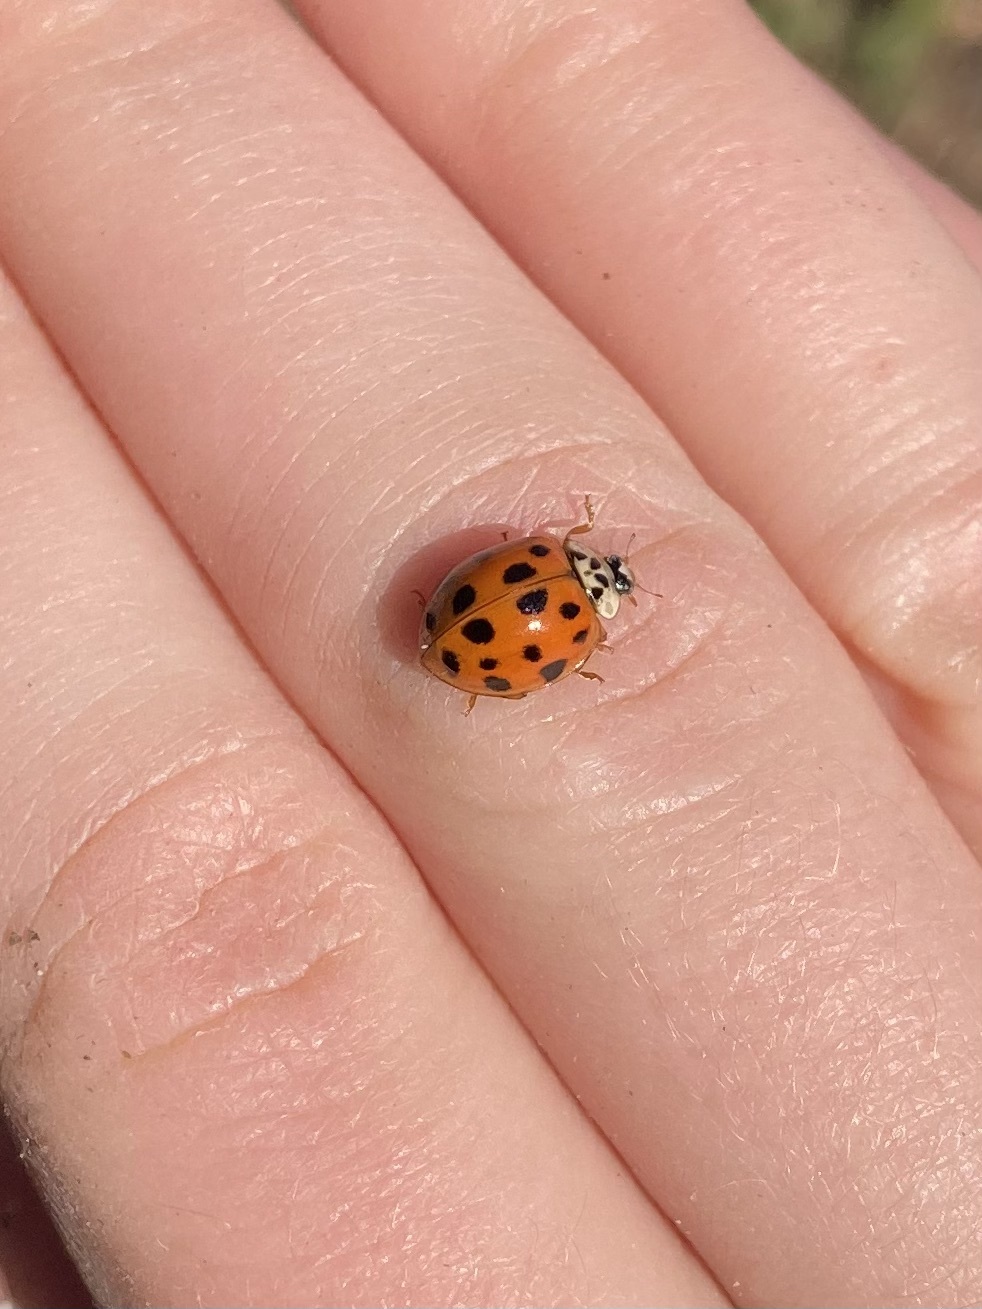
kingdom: Animalia
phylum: Arthropoda
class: Insecta
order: Coleoptera
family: Coccinellidae
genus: Harmonia
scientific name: Harmonia axyridis
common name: Harlequin ladybird
